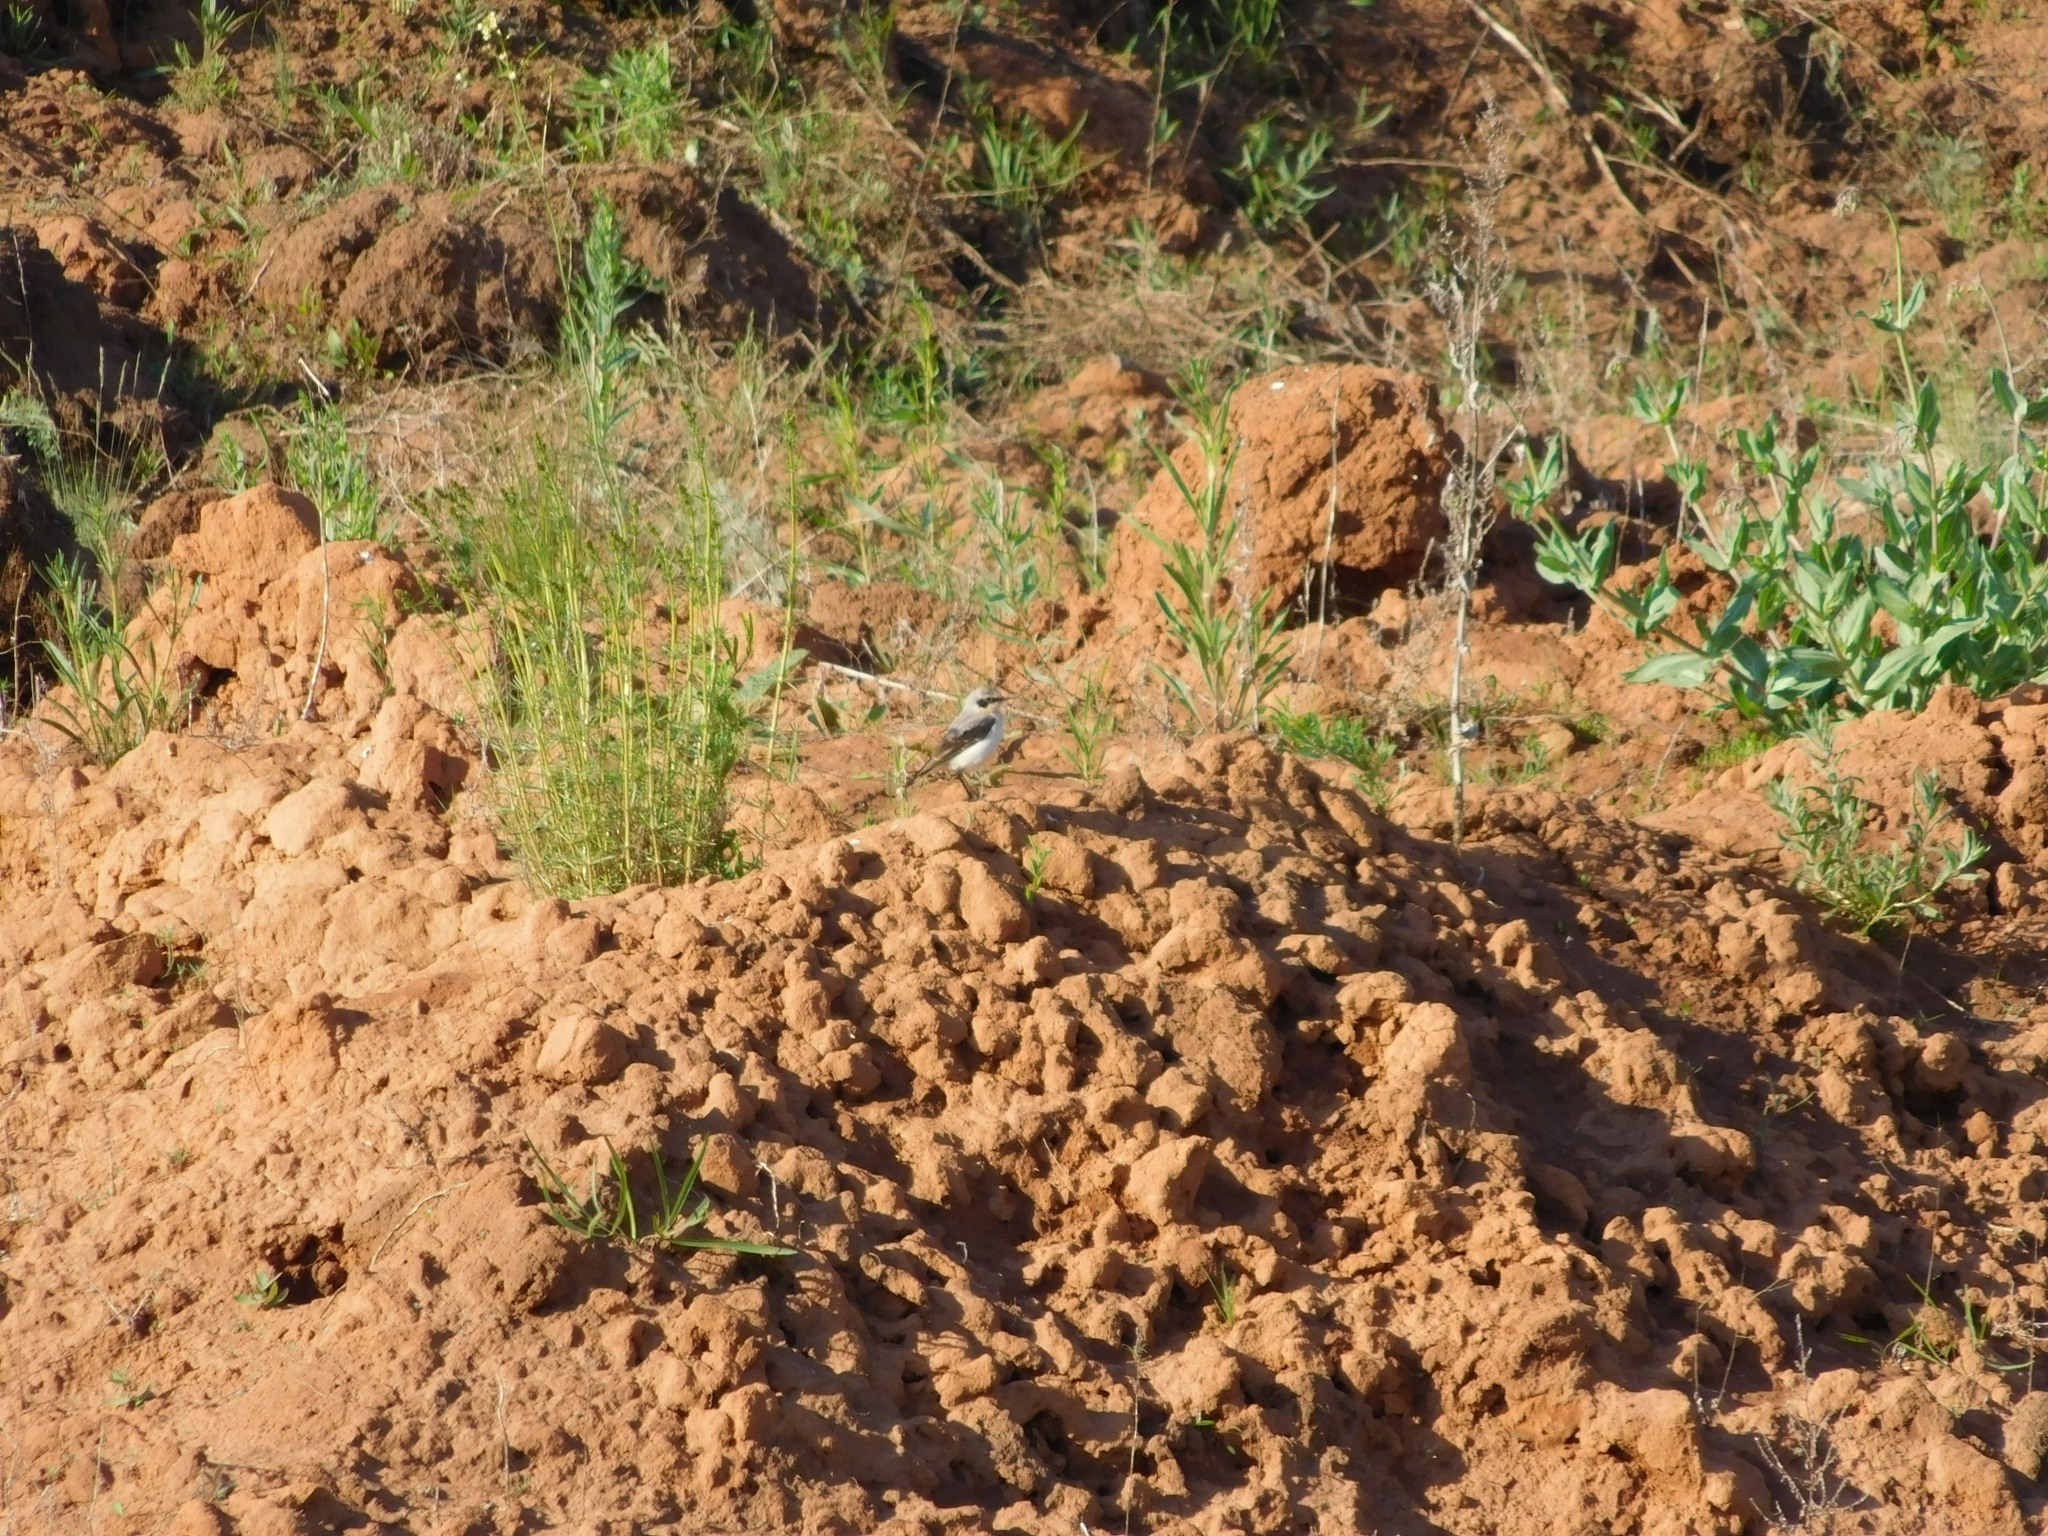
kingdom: Animalia
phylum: Chordata
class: Aves
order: Passeriformes
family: Muscicapidae
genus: Oenanthe
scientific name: Oenanthe oenanthe
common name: Northern wheatear
